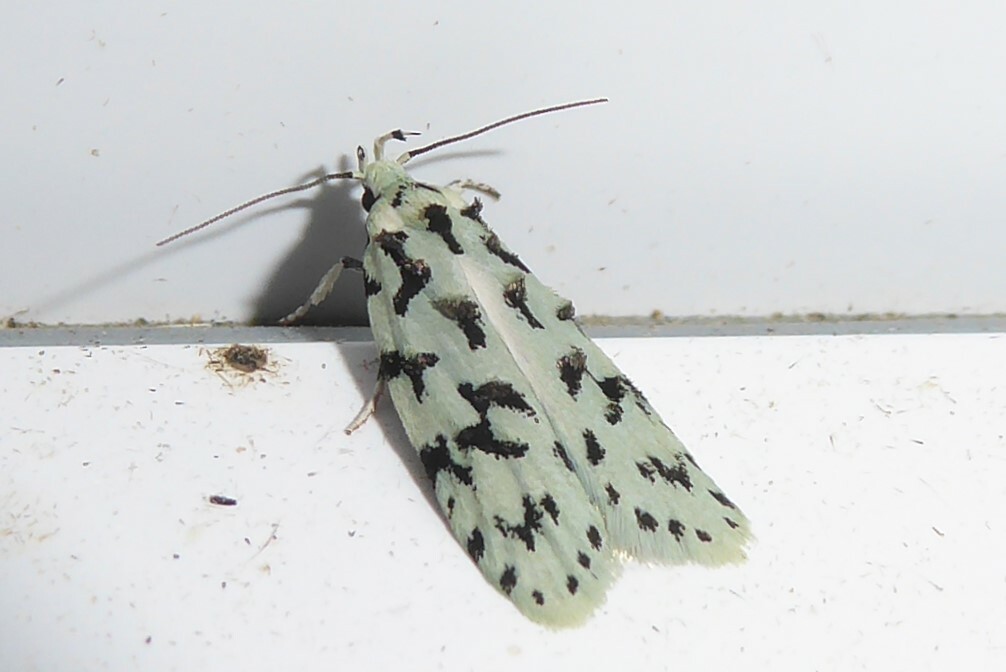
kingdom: Animalia
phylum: Arthropoda
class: Insecta
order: Lepidoptera
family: Oecophoridae
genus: Izatha
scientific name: Izatha huttoni
